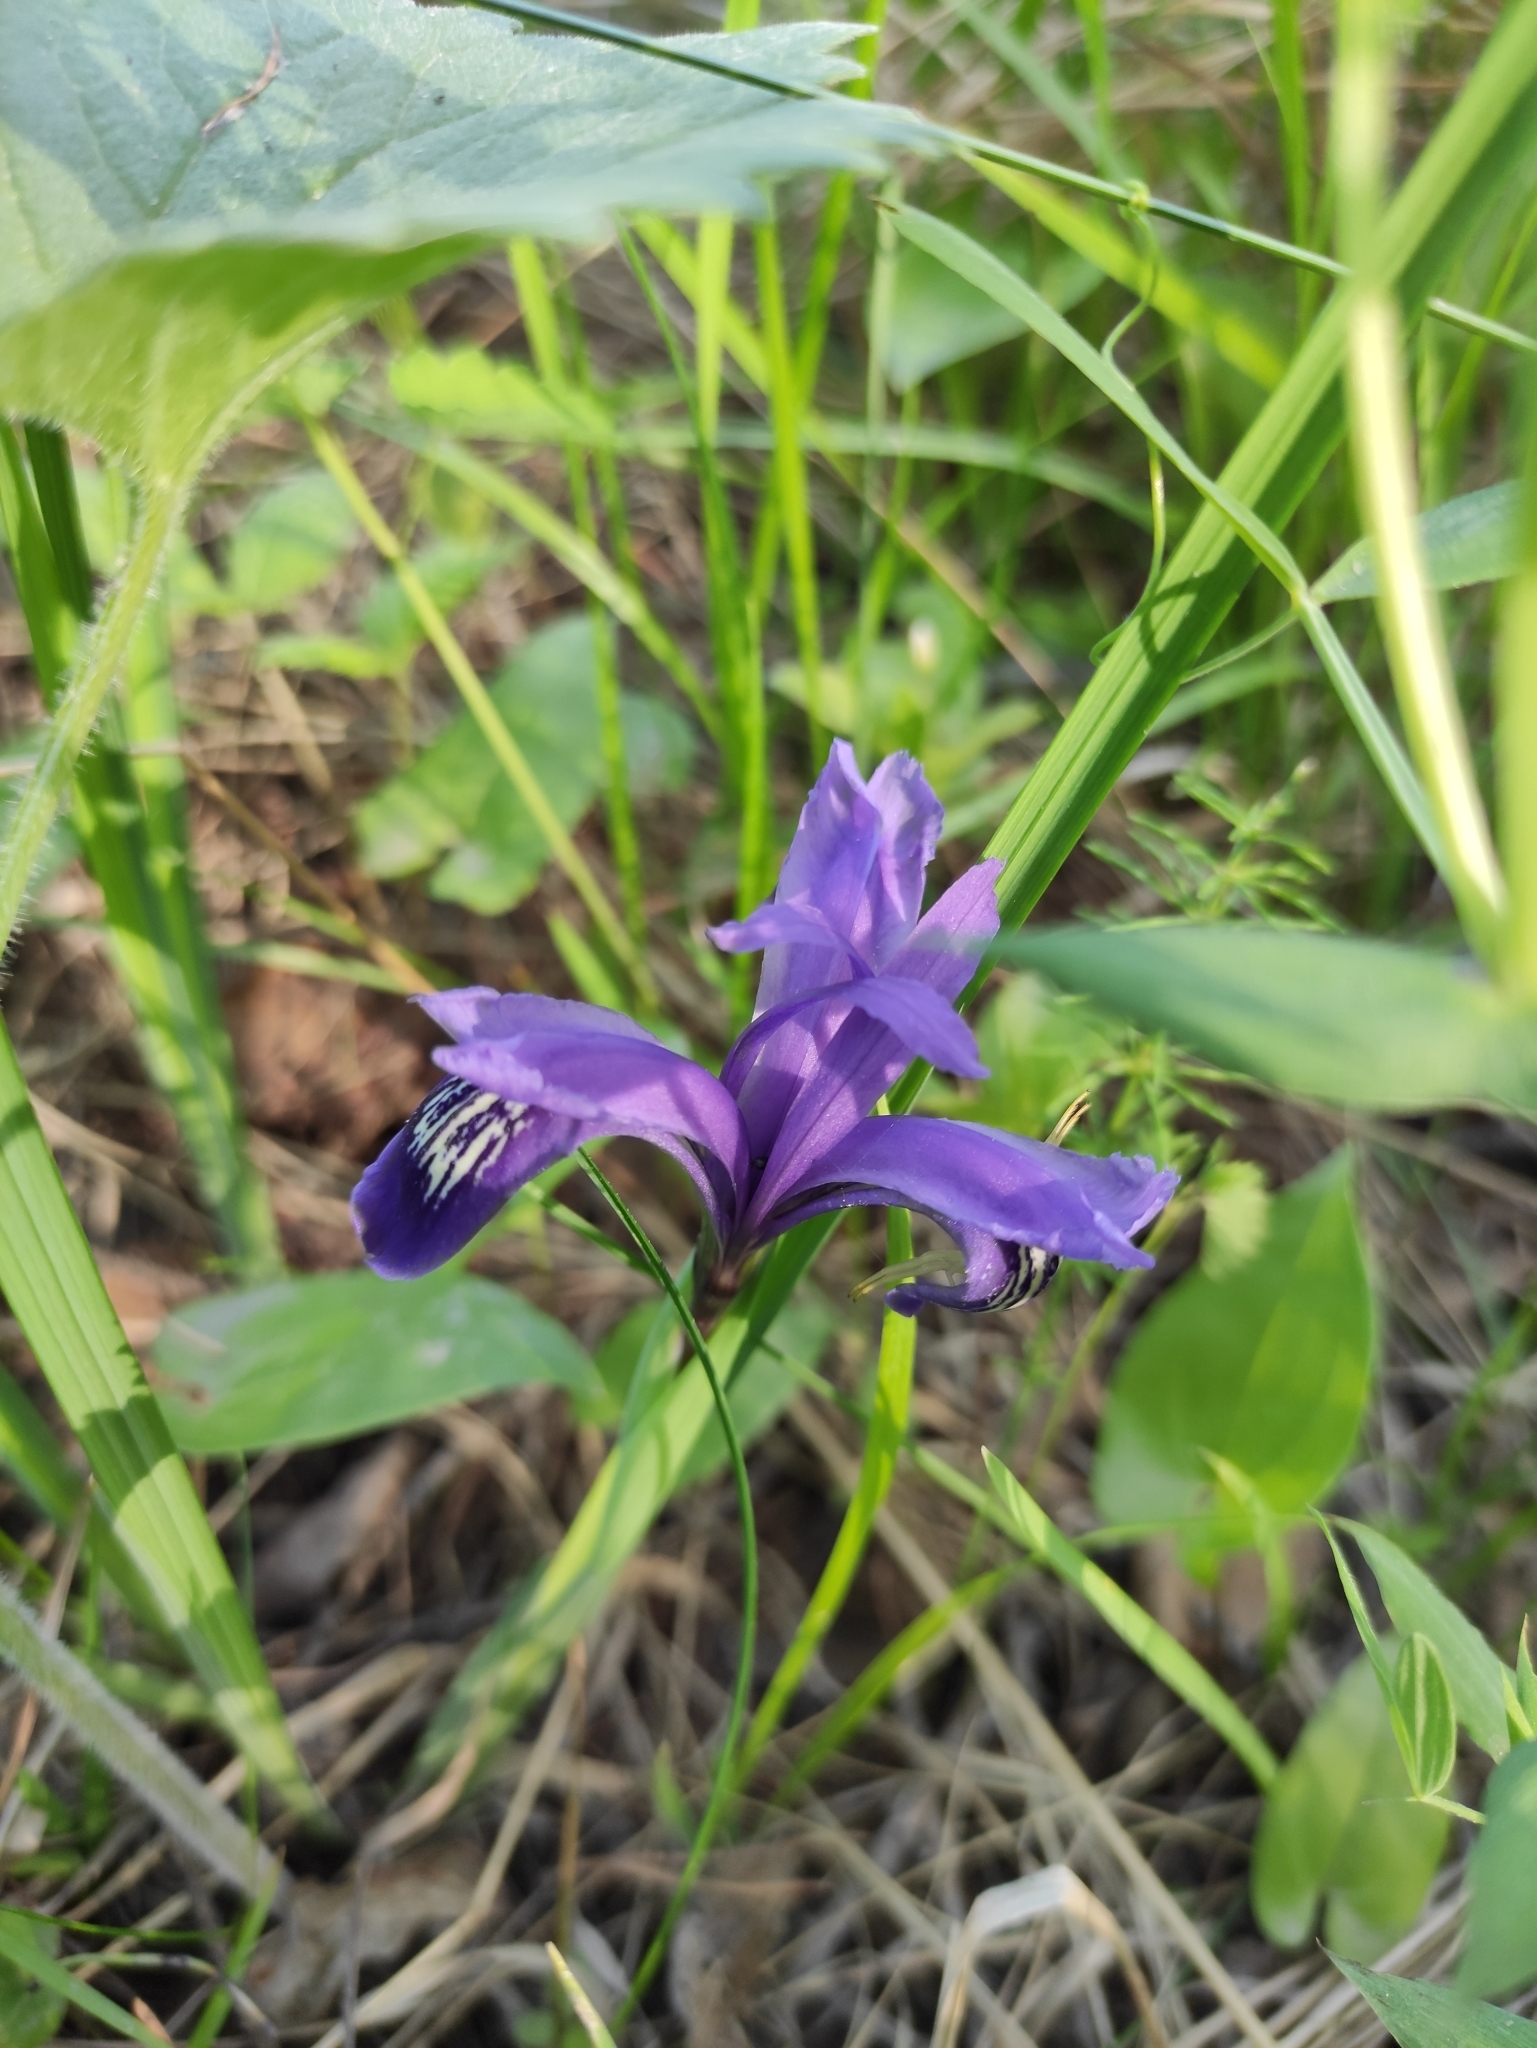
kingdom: Plantae
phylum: Tracheophyta
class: Liliopsida
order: Asparagales
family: Iridaceae
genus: Iris
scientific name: Iris ruthenica
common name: Purple-bract iris
